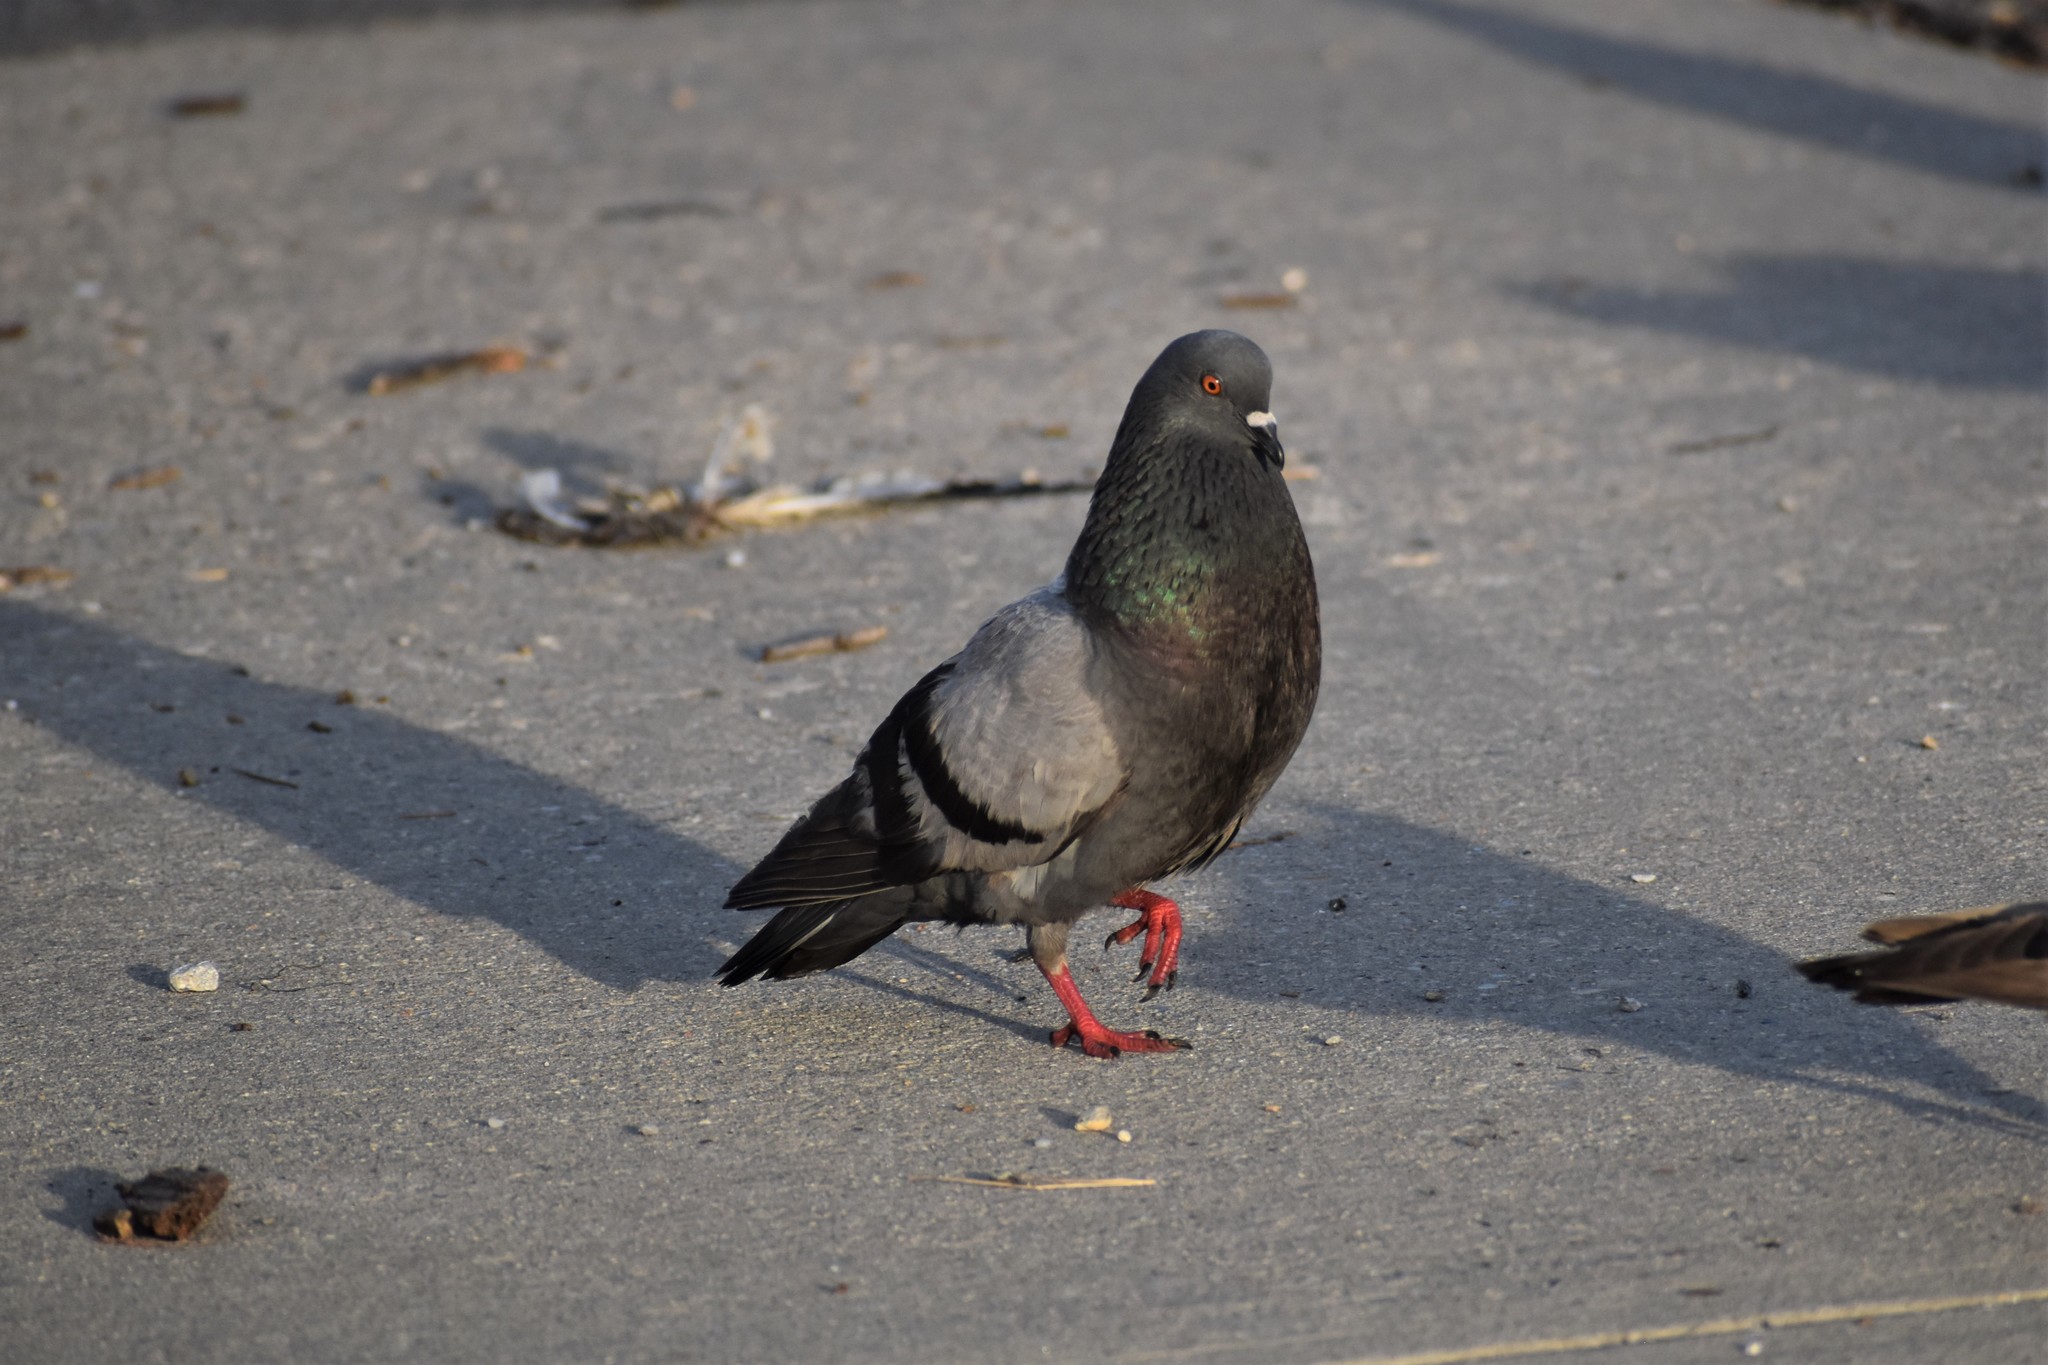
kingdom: Animalia
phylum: Chordata
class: Aves
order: Columbiformes
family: Columbidae
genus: Columba
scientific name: Columba livia
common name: Rock pigeon
